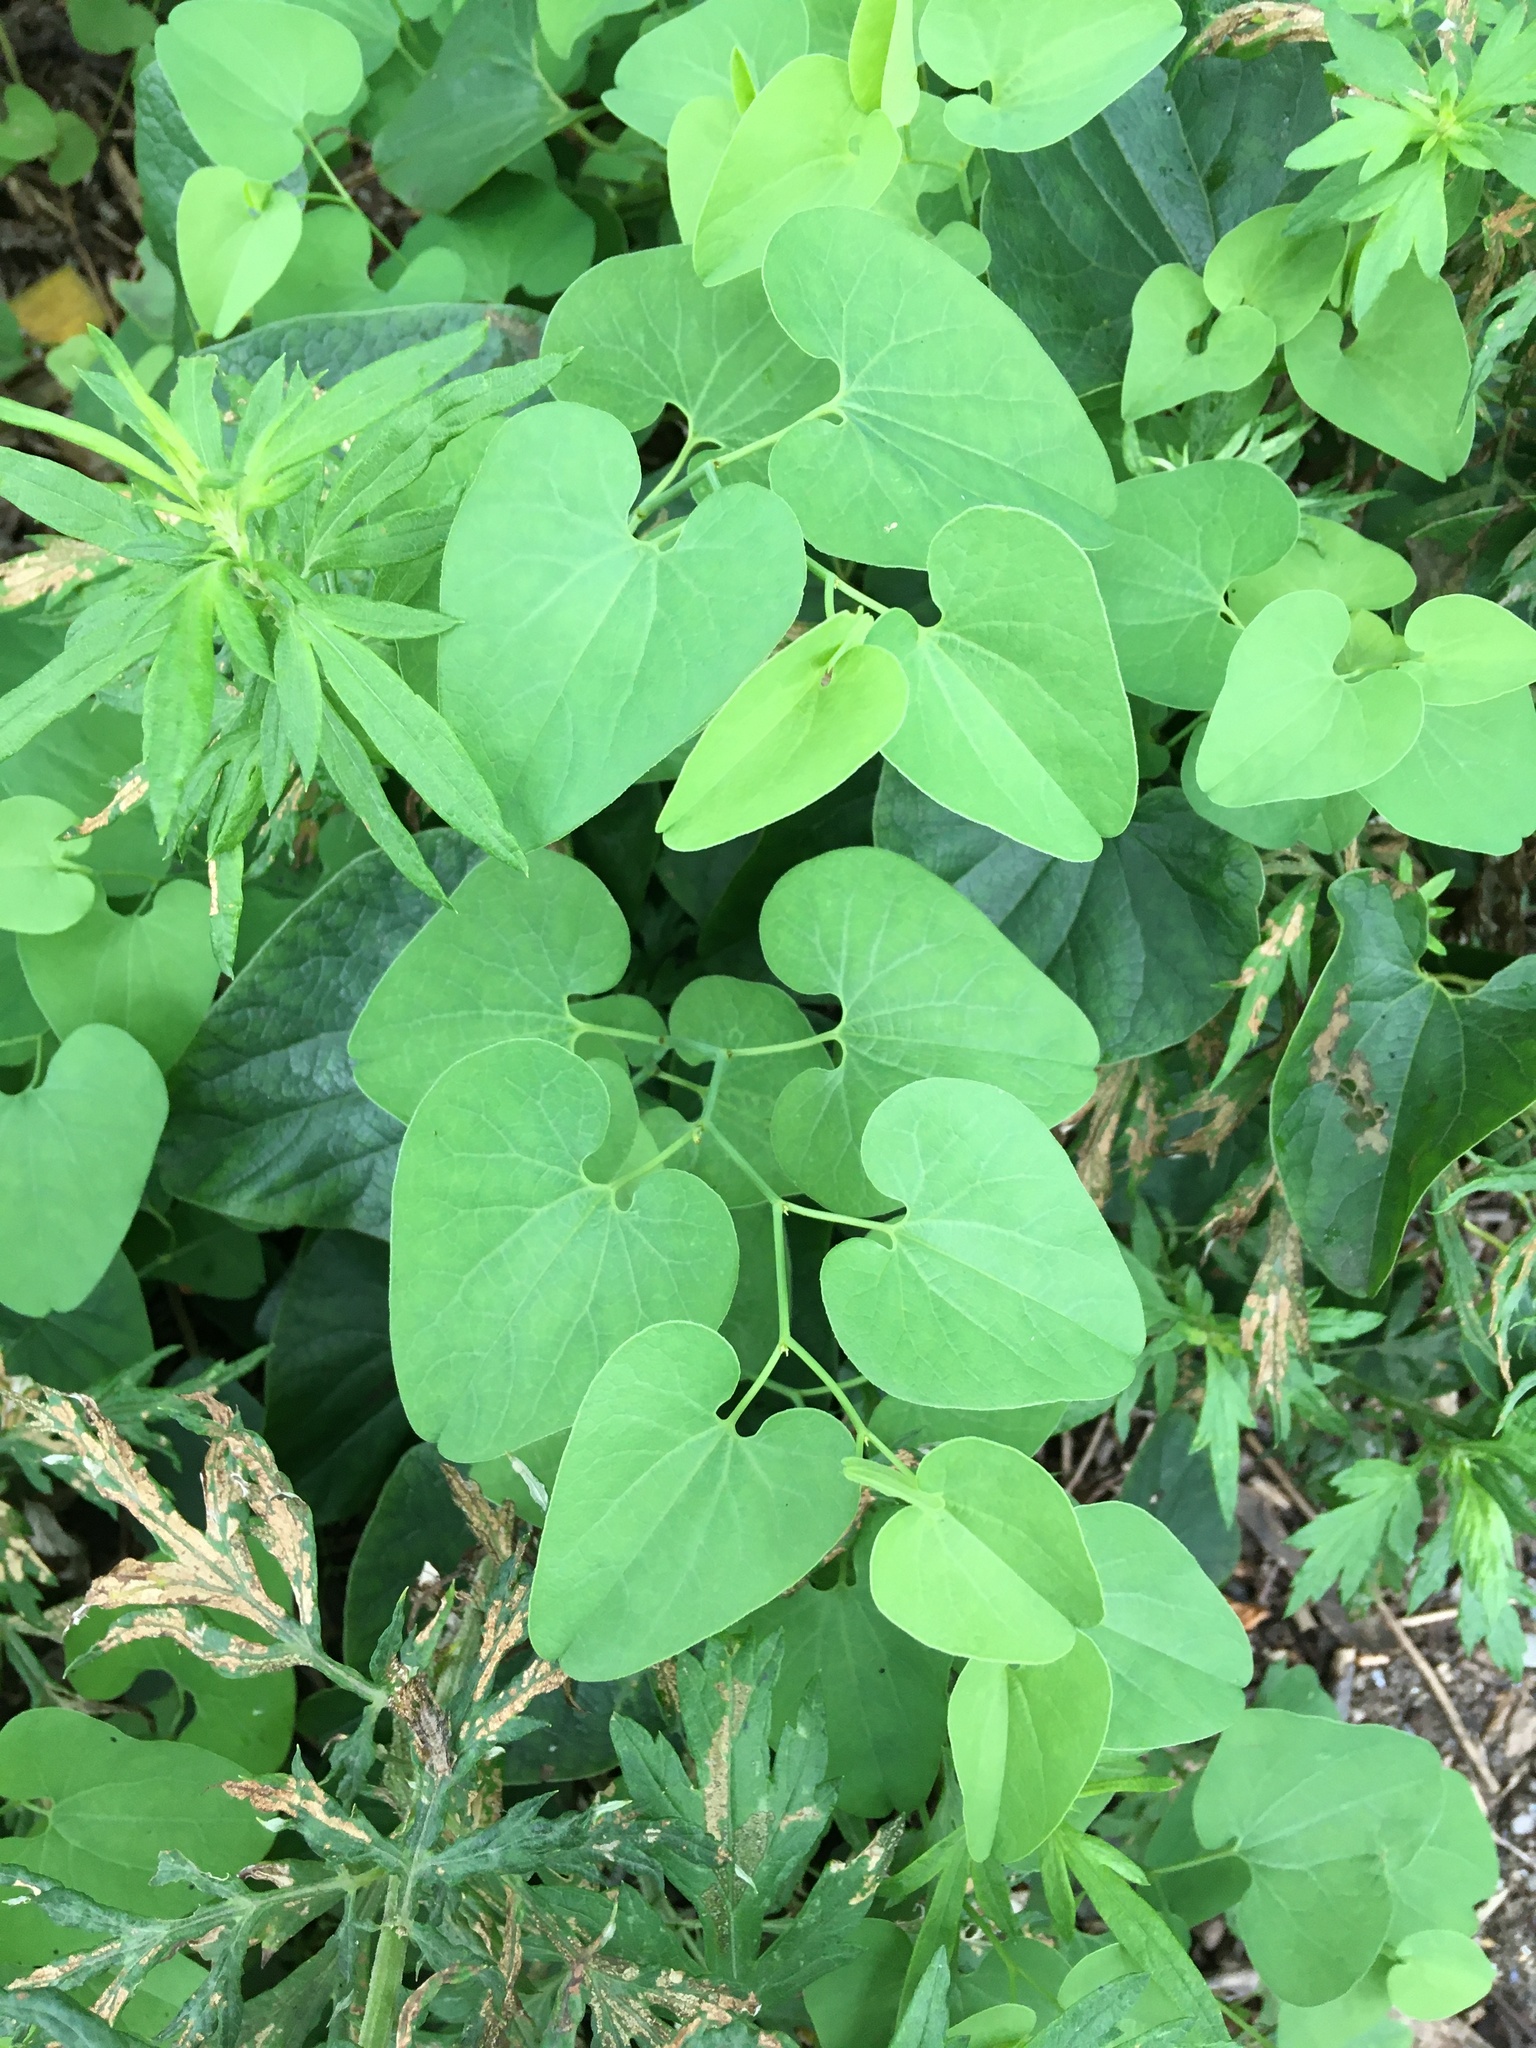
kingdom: Plantae
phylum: Tracheophyta
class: Magnoliopsida
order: Piperales
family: Aristolochiaceae
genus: Aristolochia
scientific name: Aristolochia clematitis
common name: Birthwort
